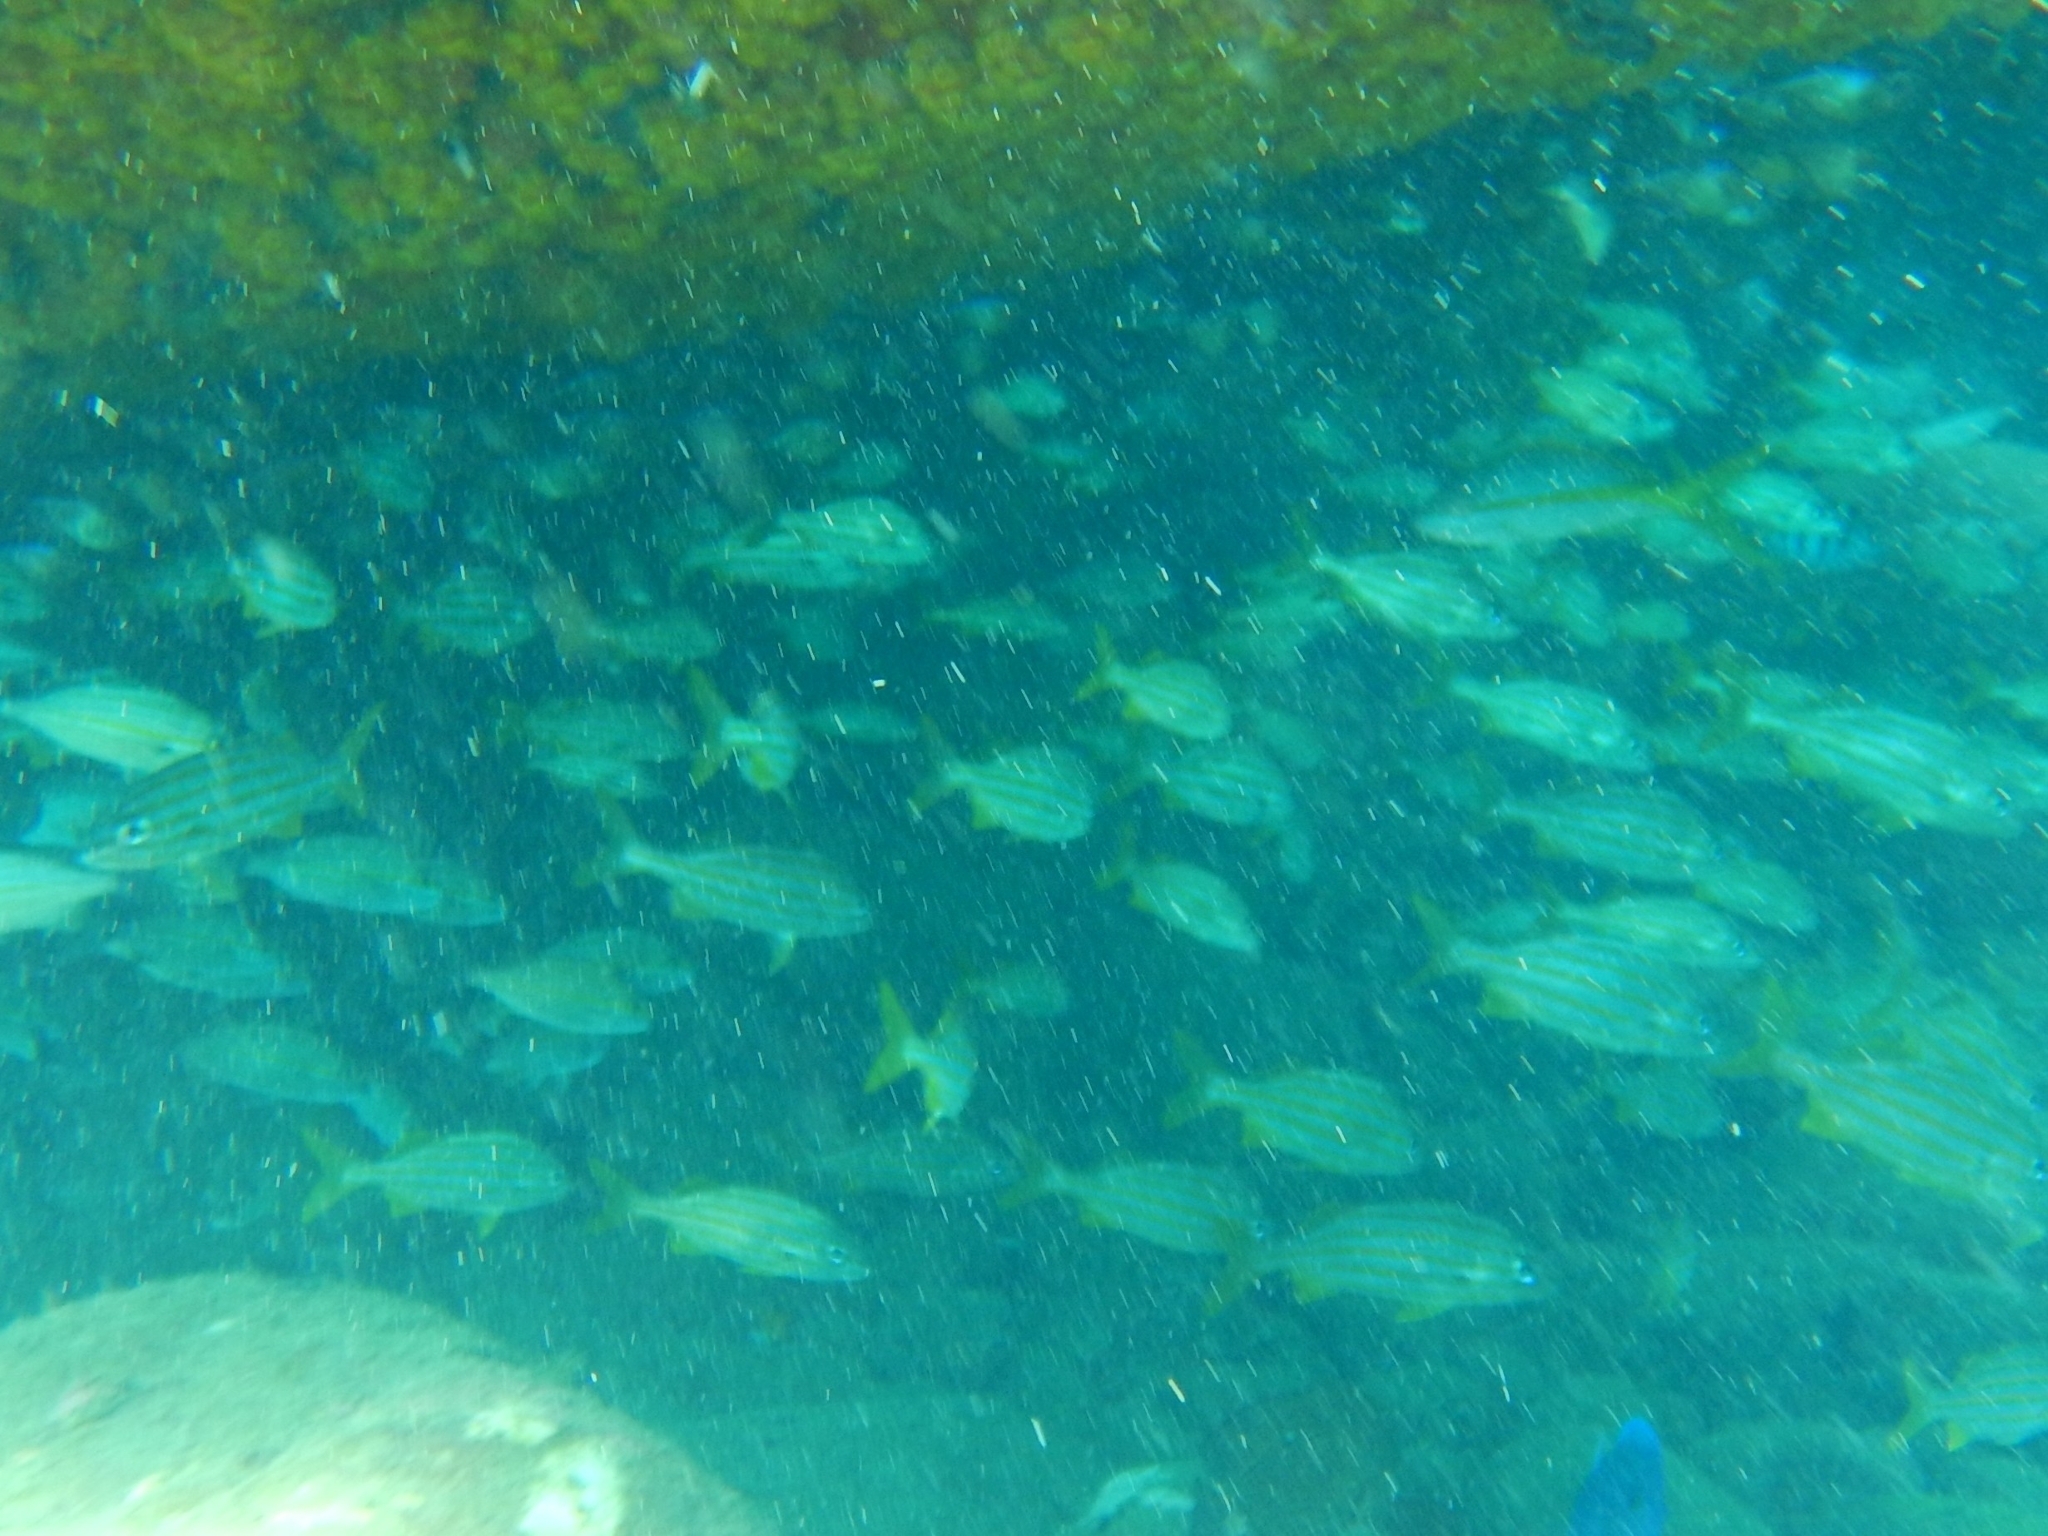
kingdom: Animalia
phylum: Chordata
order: Perciformes
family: Haemulidae
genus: Haemulon
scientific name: Haemulon chrysargyreum
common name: Smallmouth grunt
